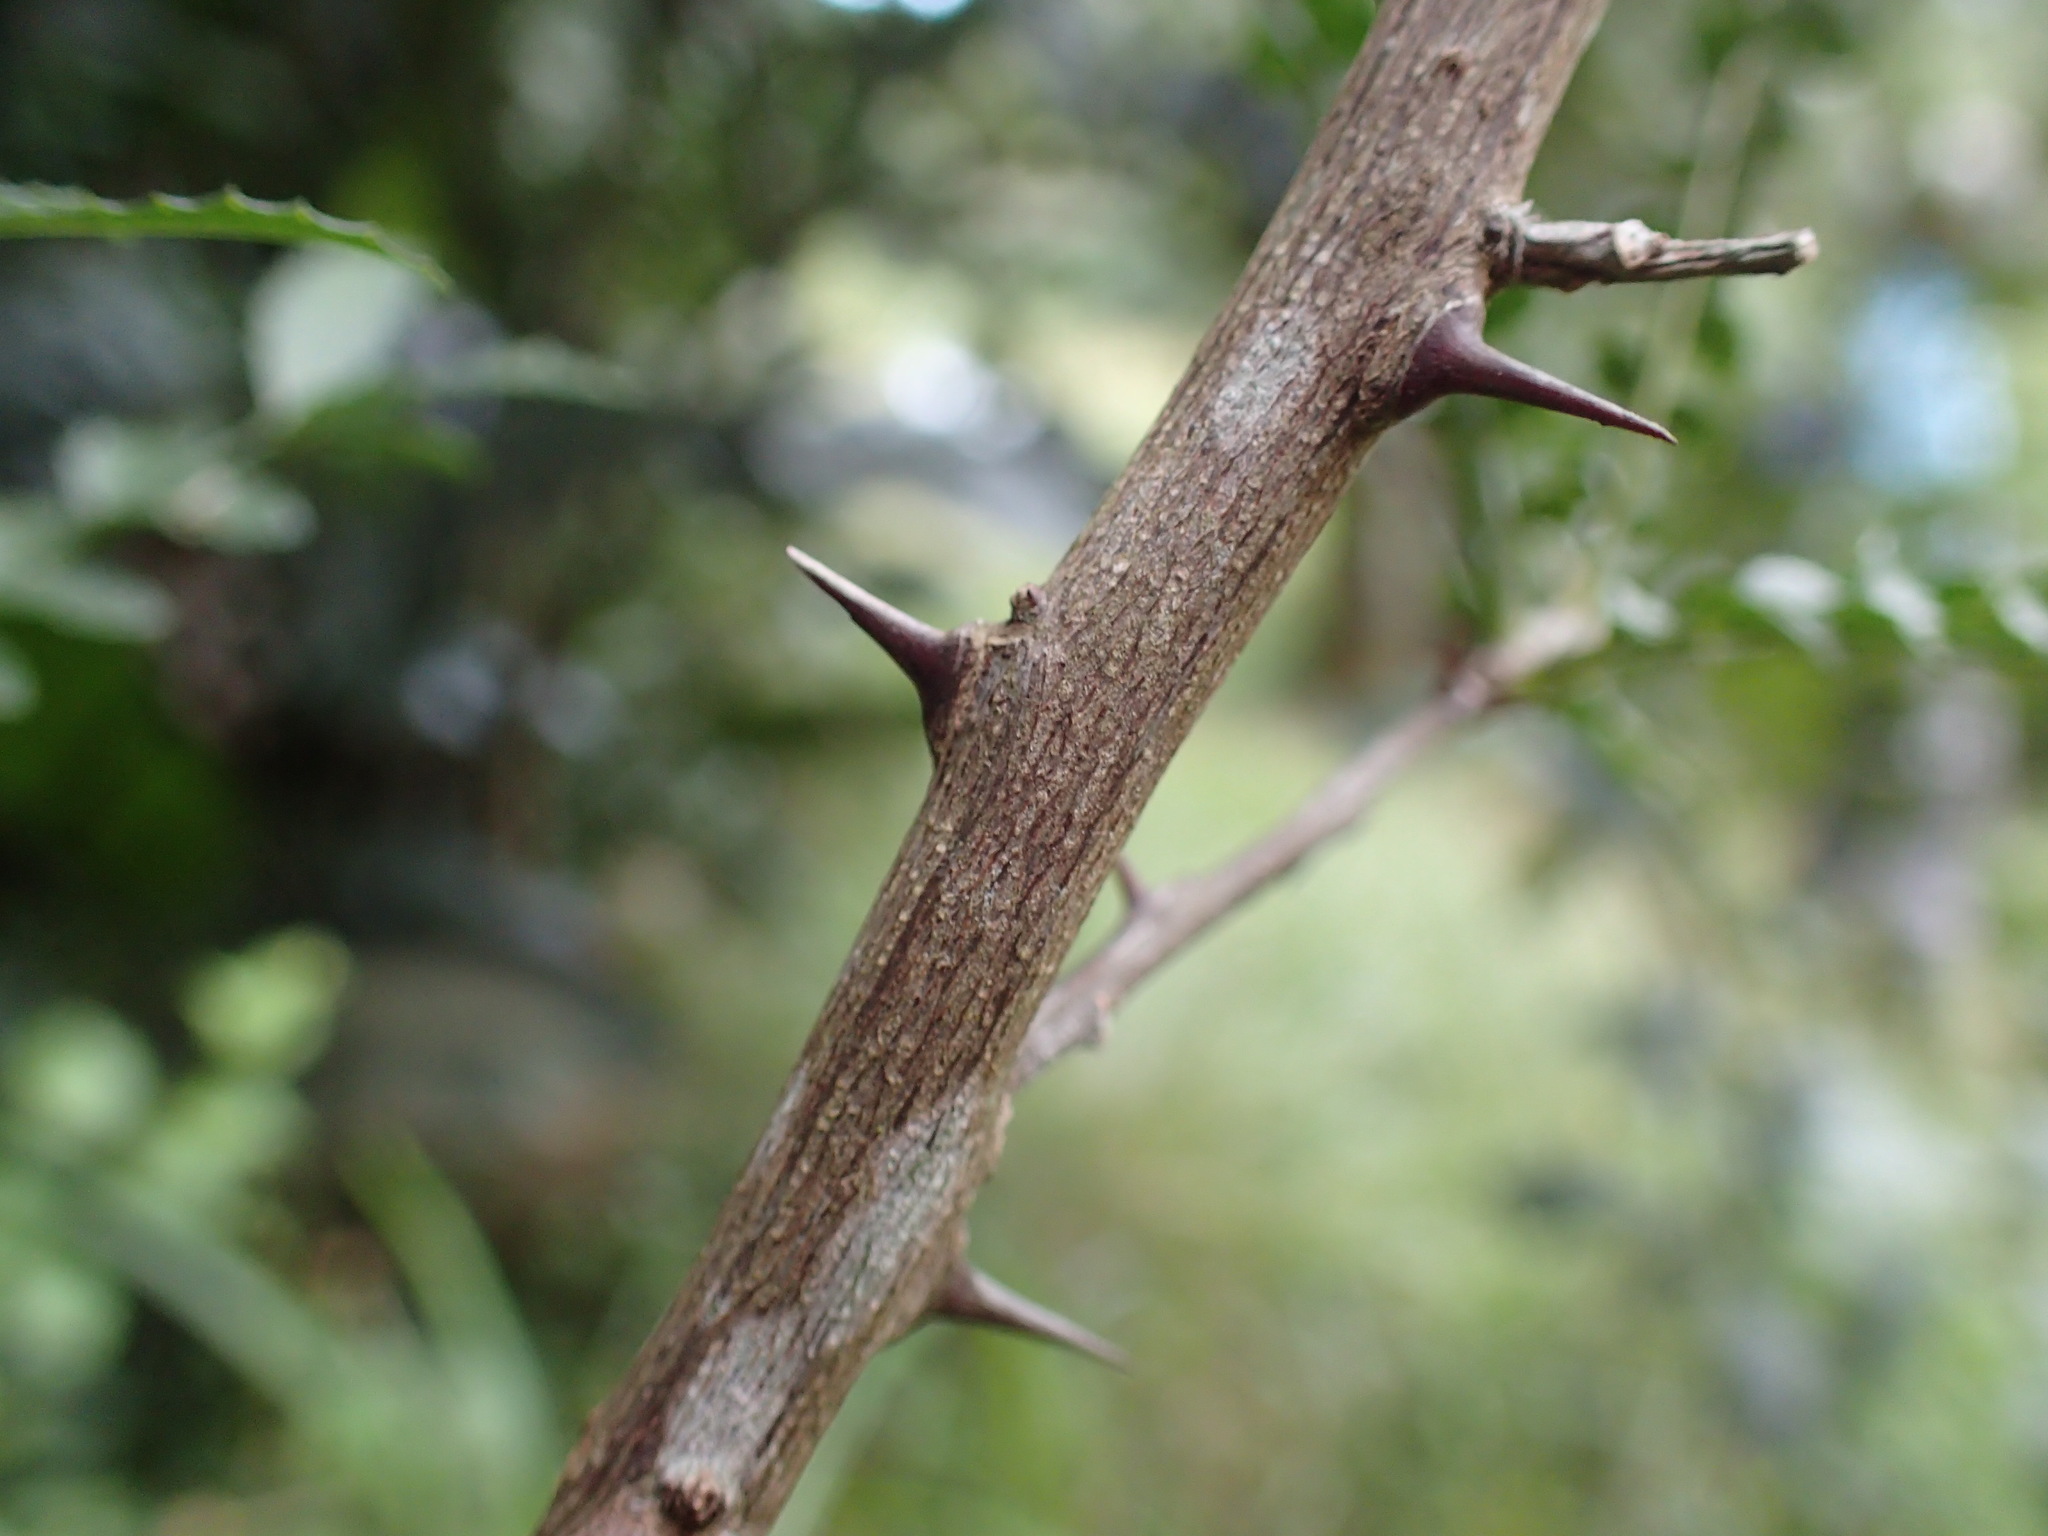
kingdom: Plantae
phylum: Tracheophyta
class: Magnoliopsida
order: Sapindales
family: Rutaceae
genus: Zanthoxylum
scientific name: Zanthoxylum capense
